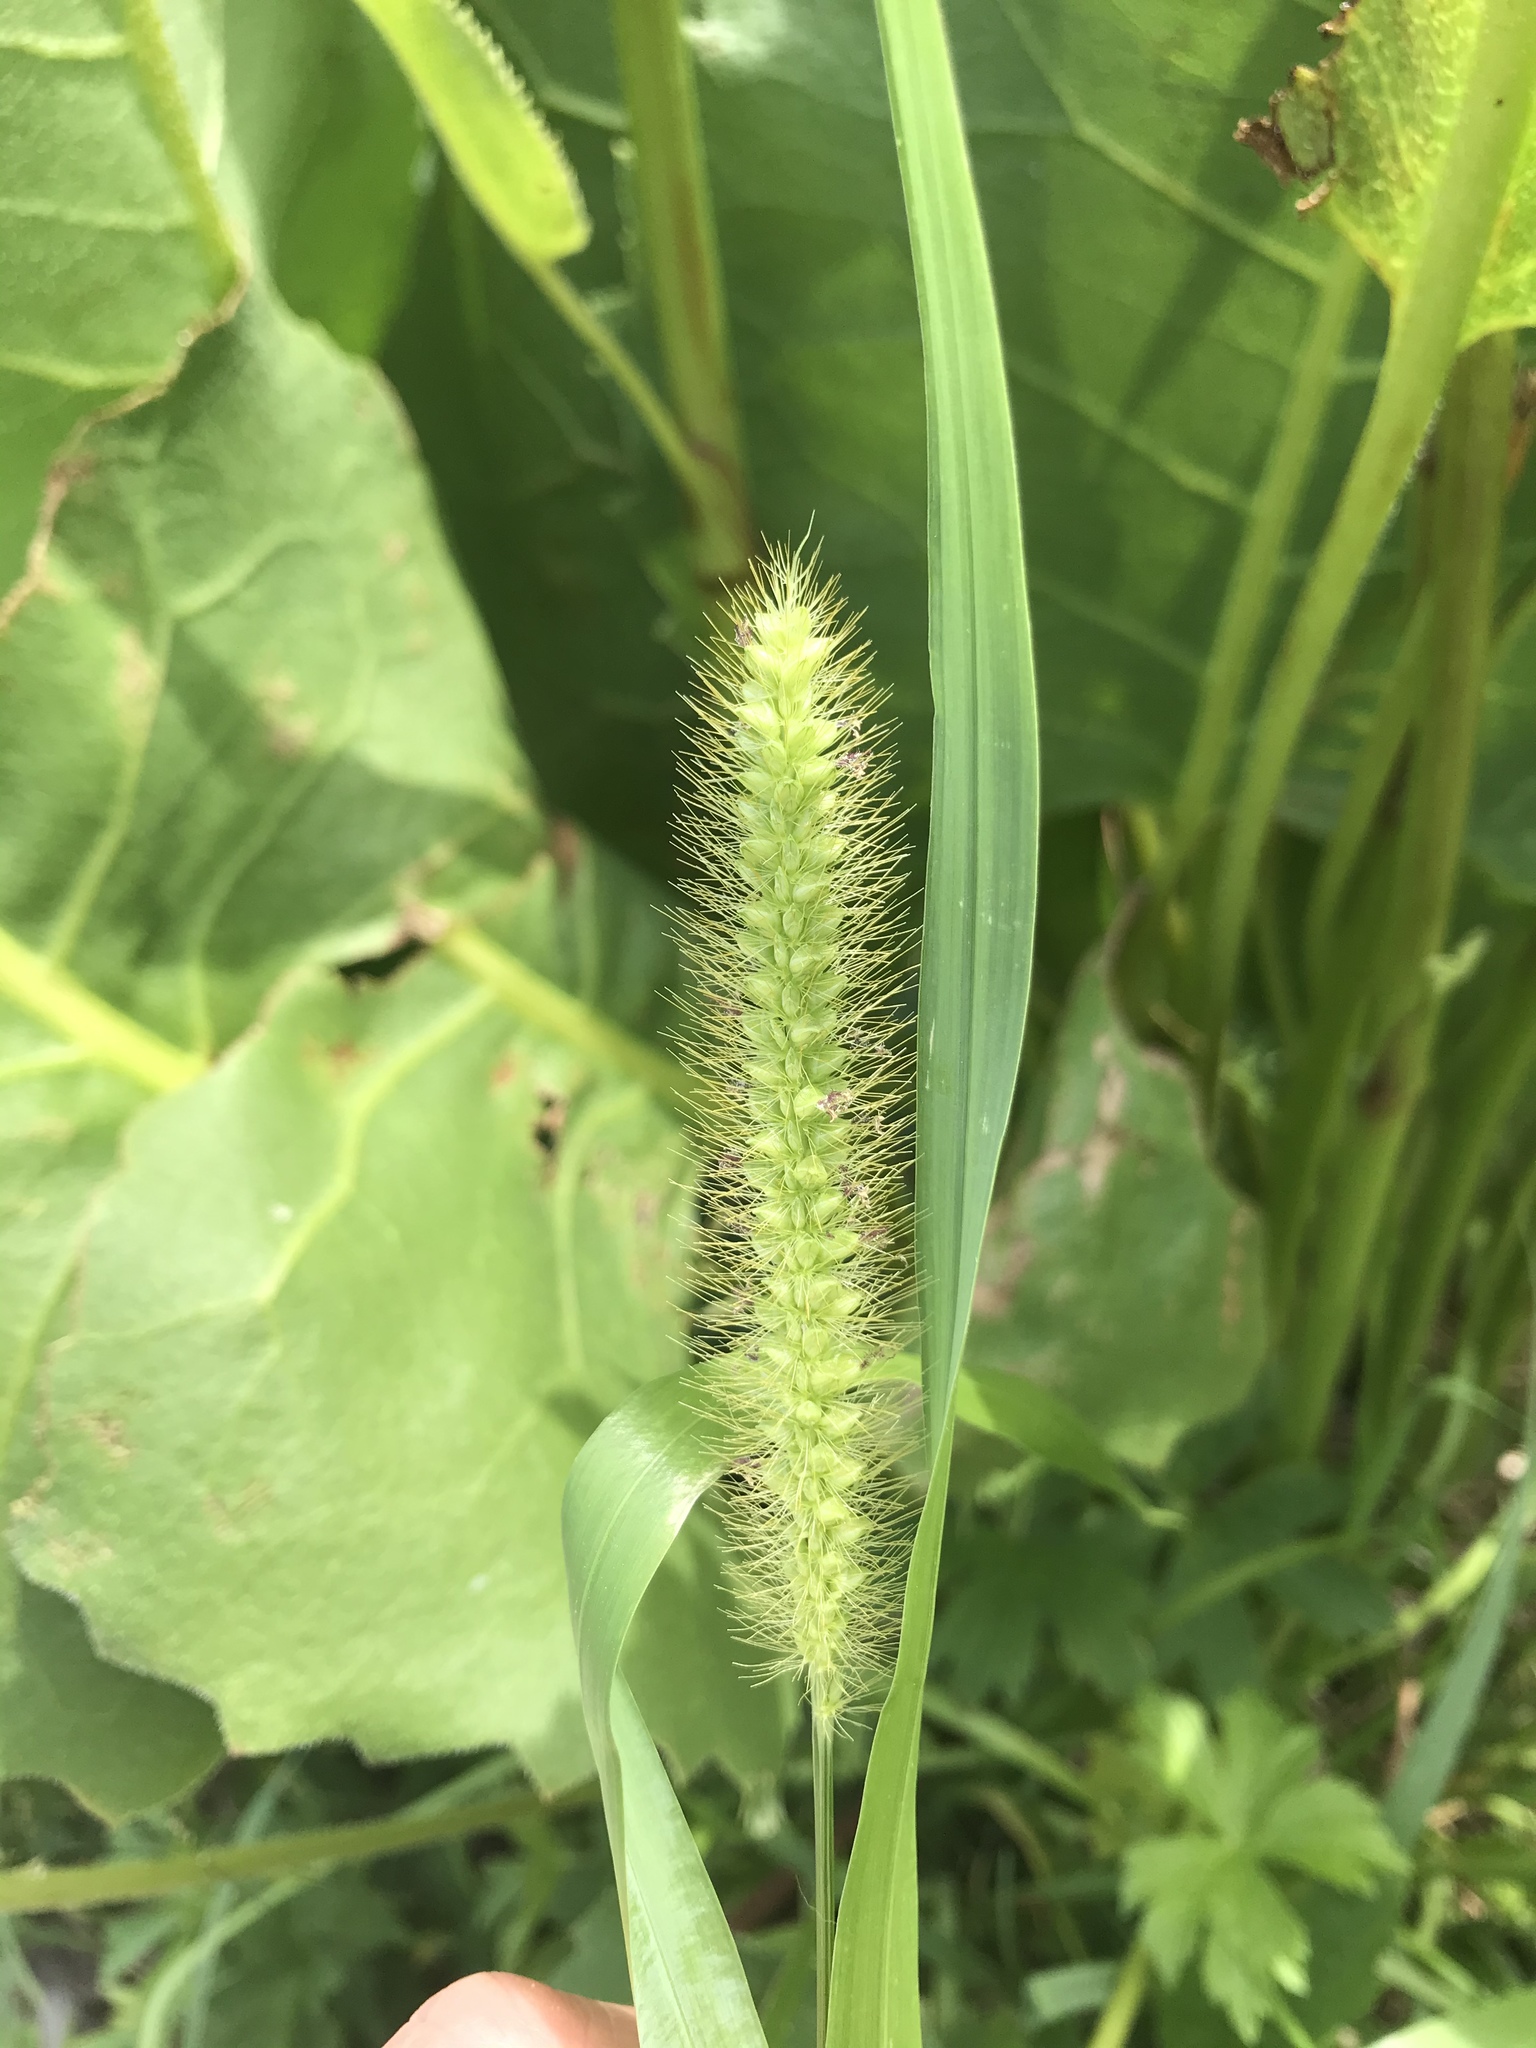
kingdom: Plantae
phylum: Tracheophyta
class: Liliopsida
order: Poales
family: Poaceae
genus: Setaria
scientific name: Setaria pumila
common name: Yellow bristle-grass
